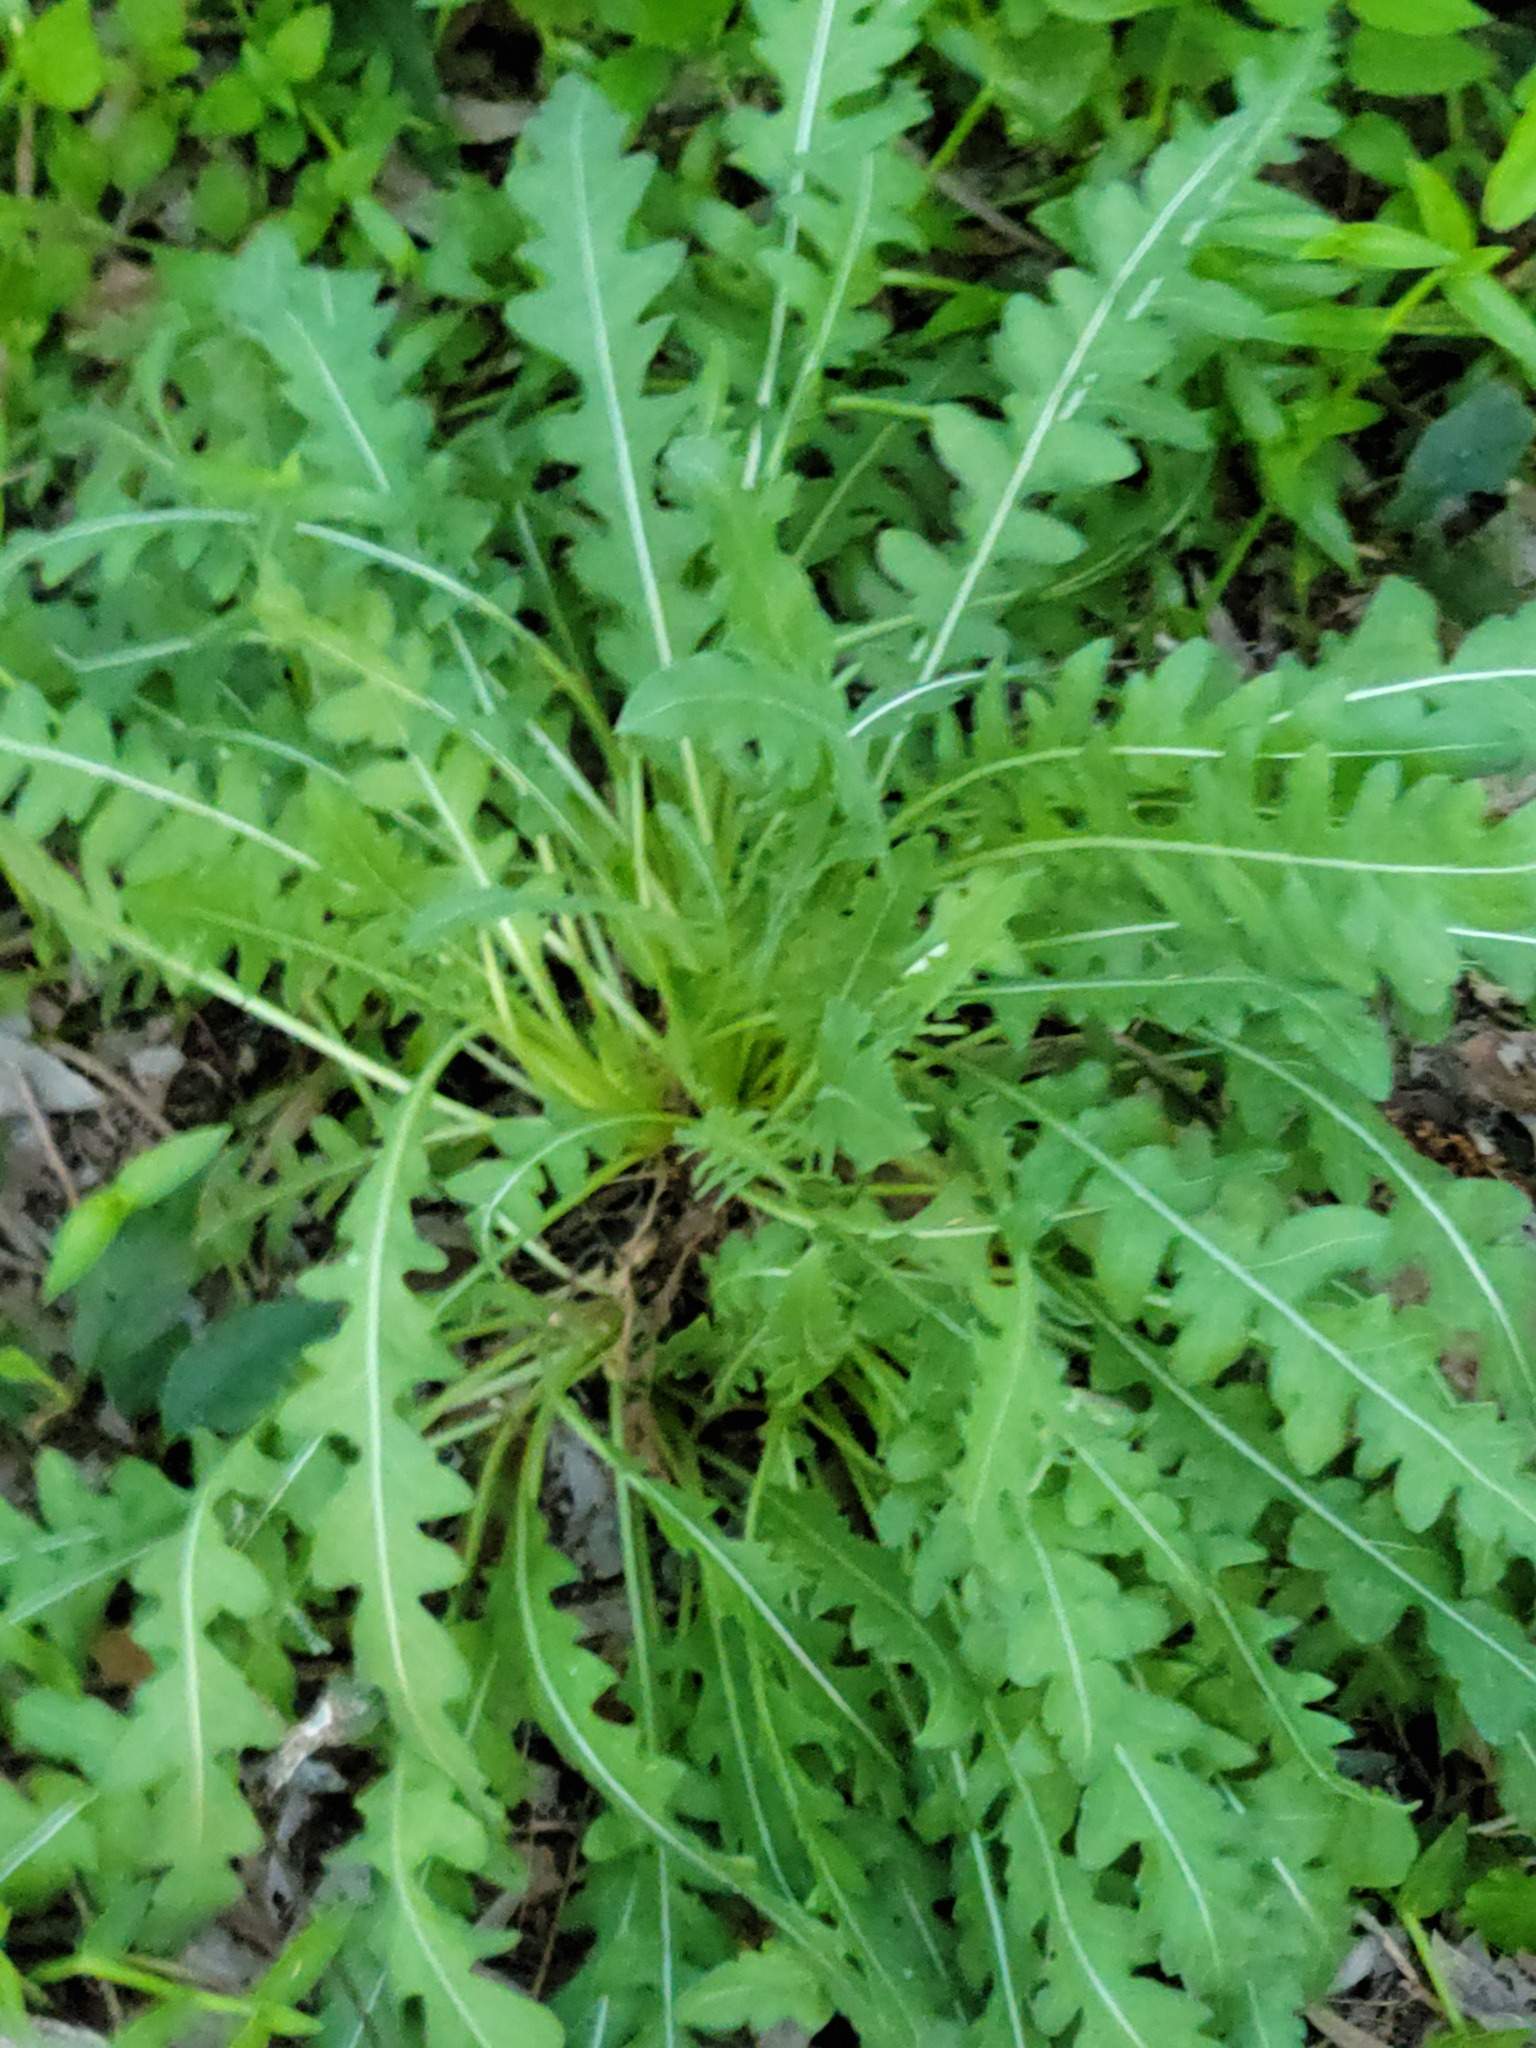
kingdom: Plantae
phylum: Tracheophyta
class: Magnoliopsida
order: Asterales
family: Asteraceae
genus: Engelmannia
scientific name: Engelmannia peristenia
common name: Engelmann's daisy
